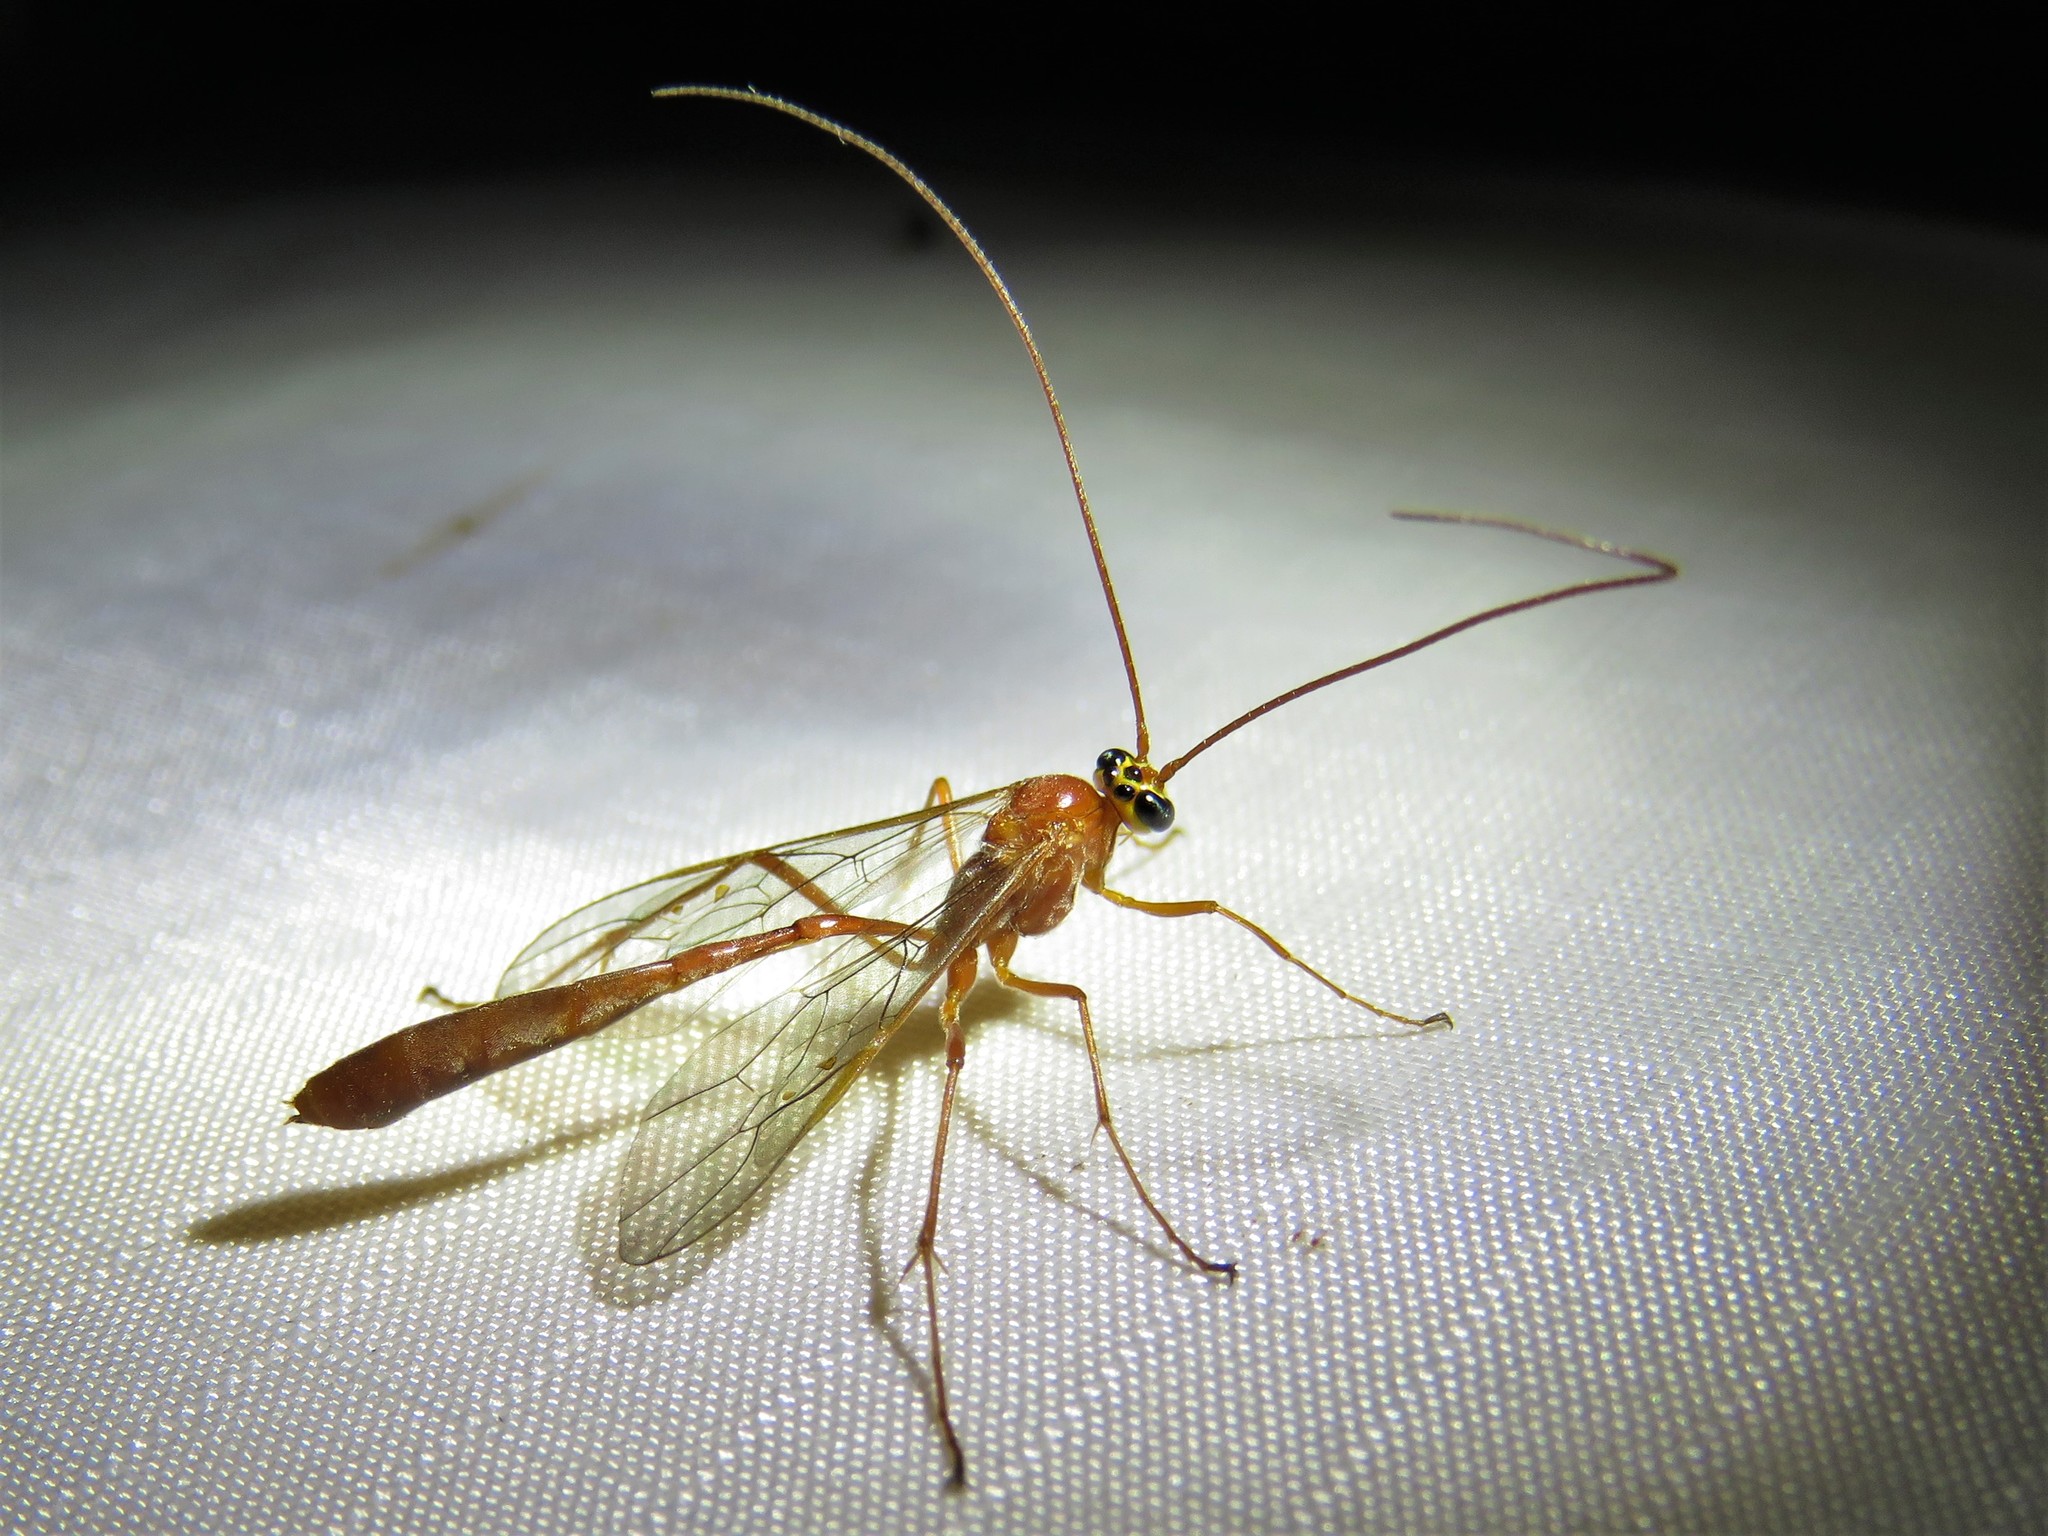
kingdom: Animalia
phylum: Arthropoda
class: Insecta
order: Hymenoptera
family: Ichneumonidae
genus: Enicospilus
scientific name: Enicospilus purgatus
